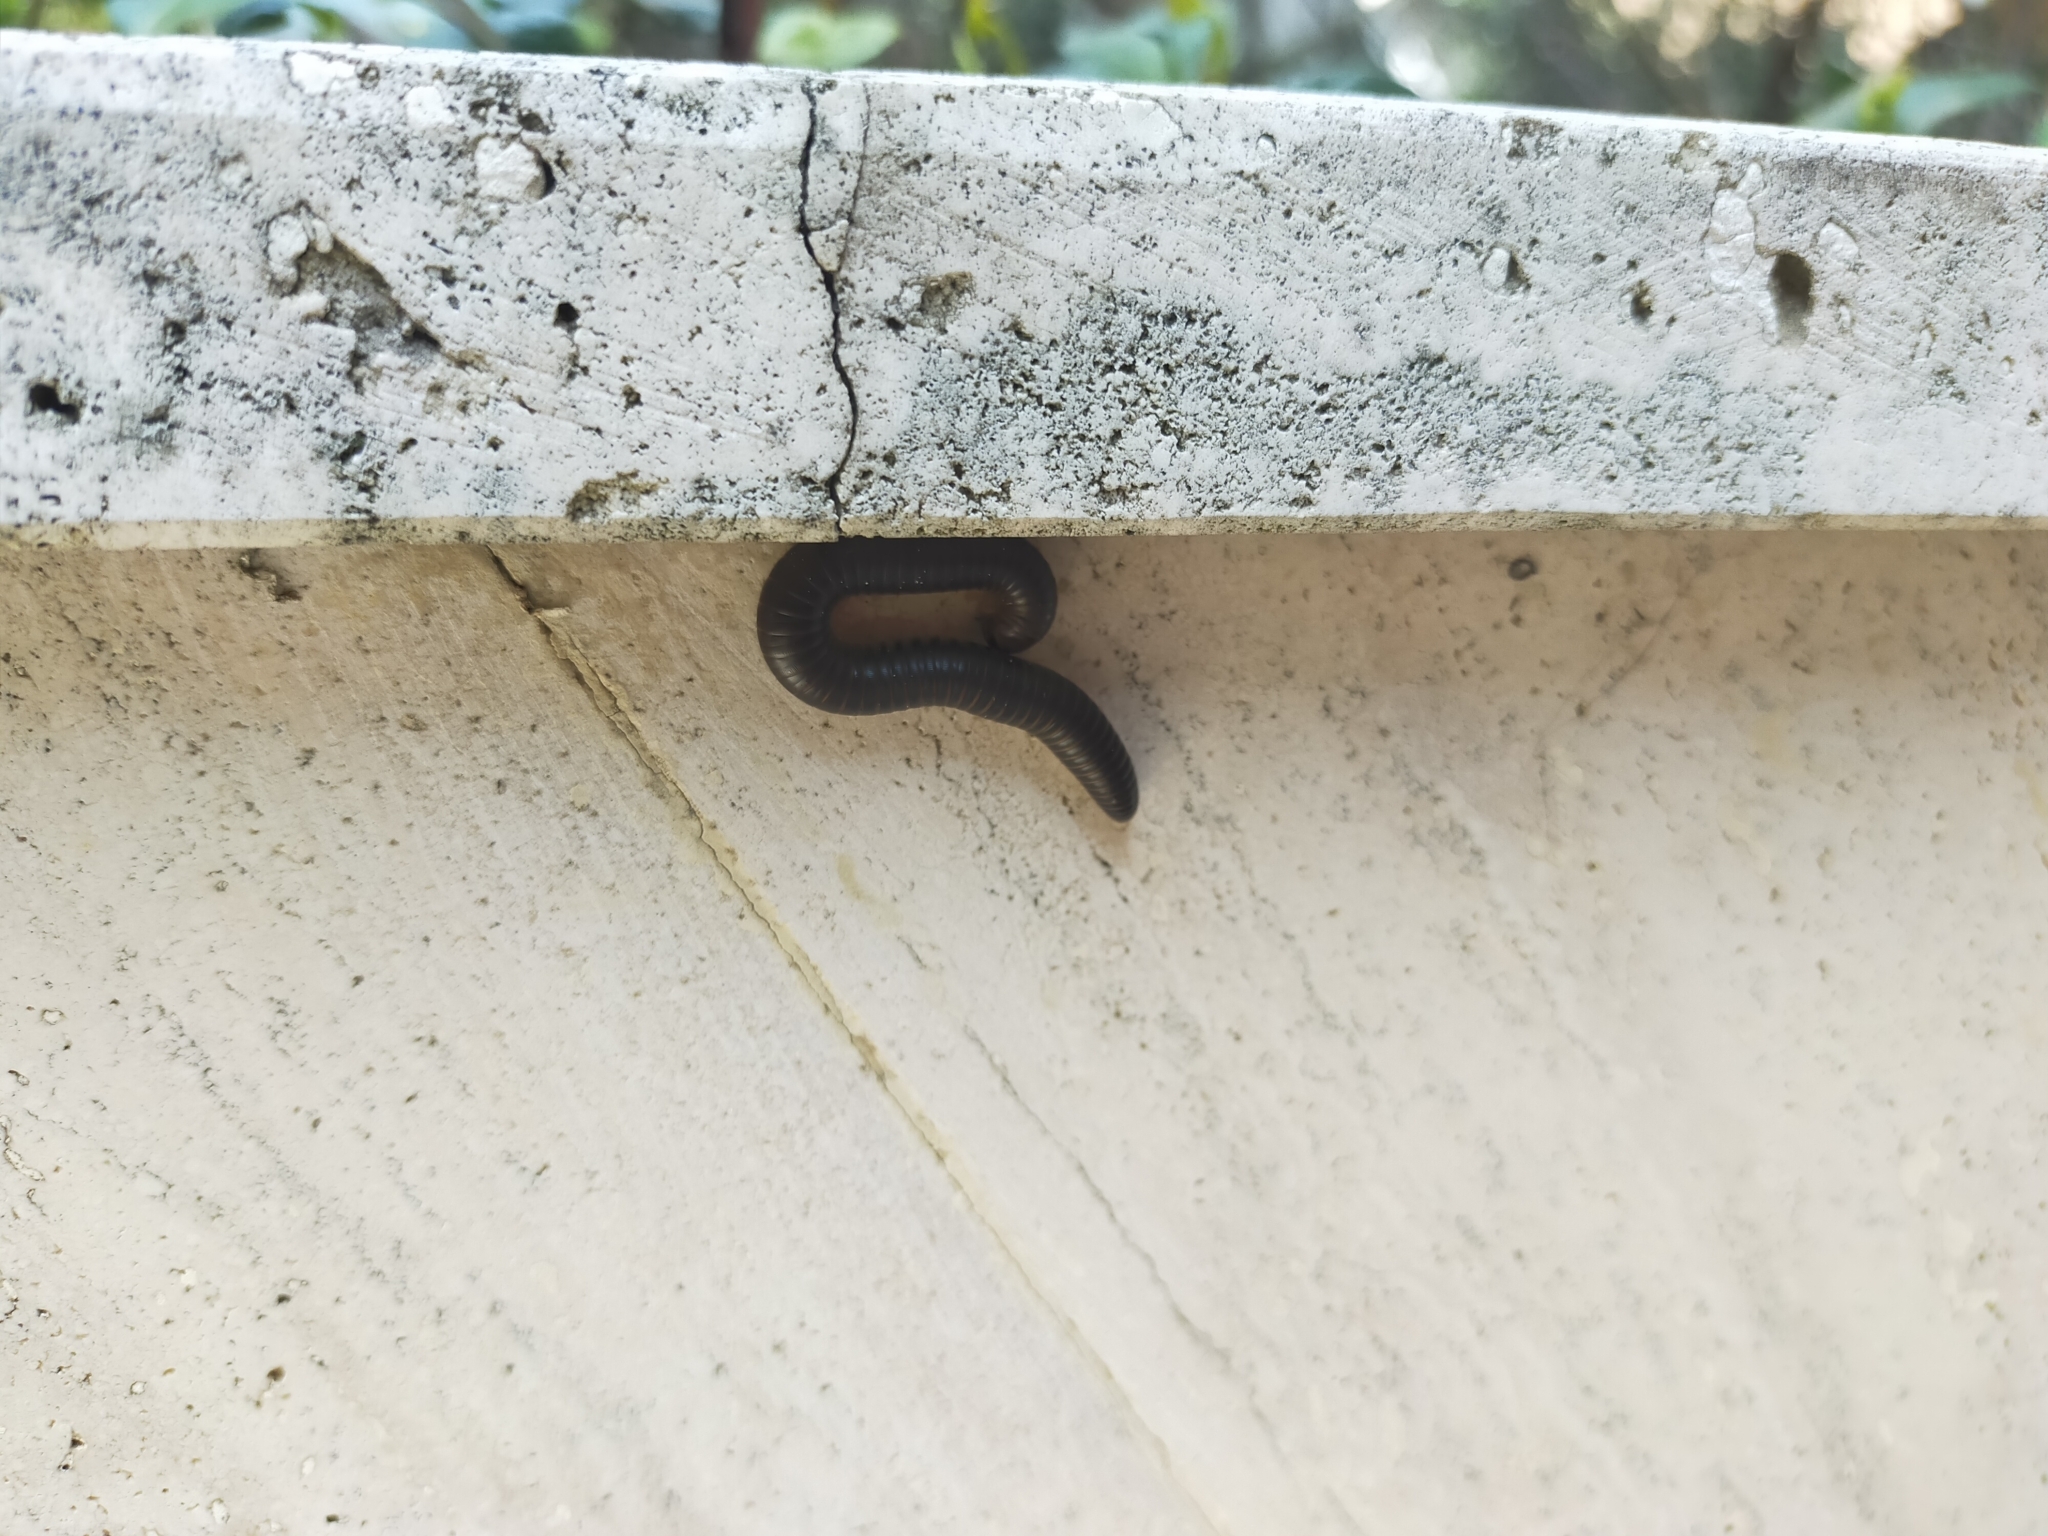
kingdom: Animalia
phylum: Arthropoda
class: Diplopoda
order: Julida
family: Julidae
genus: Pachyiulus
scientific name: Pachyiulus flavipes
